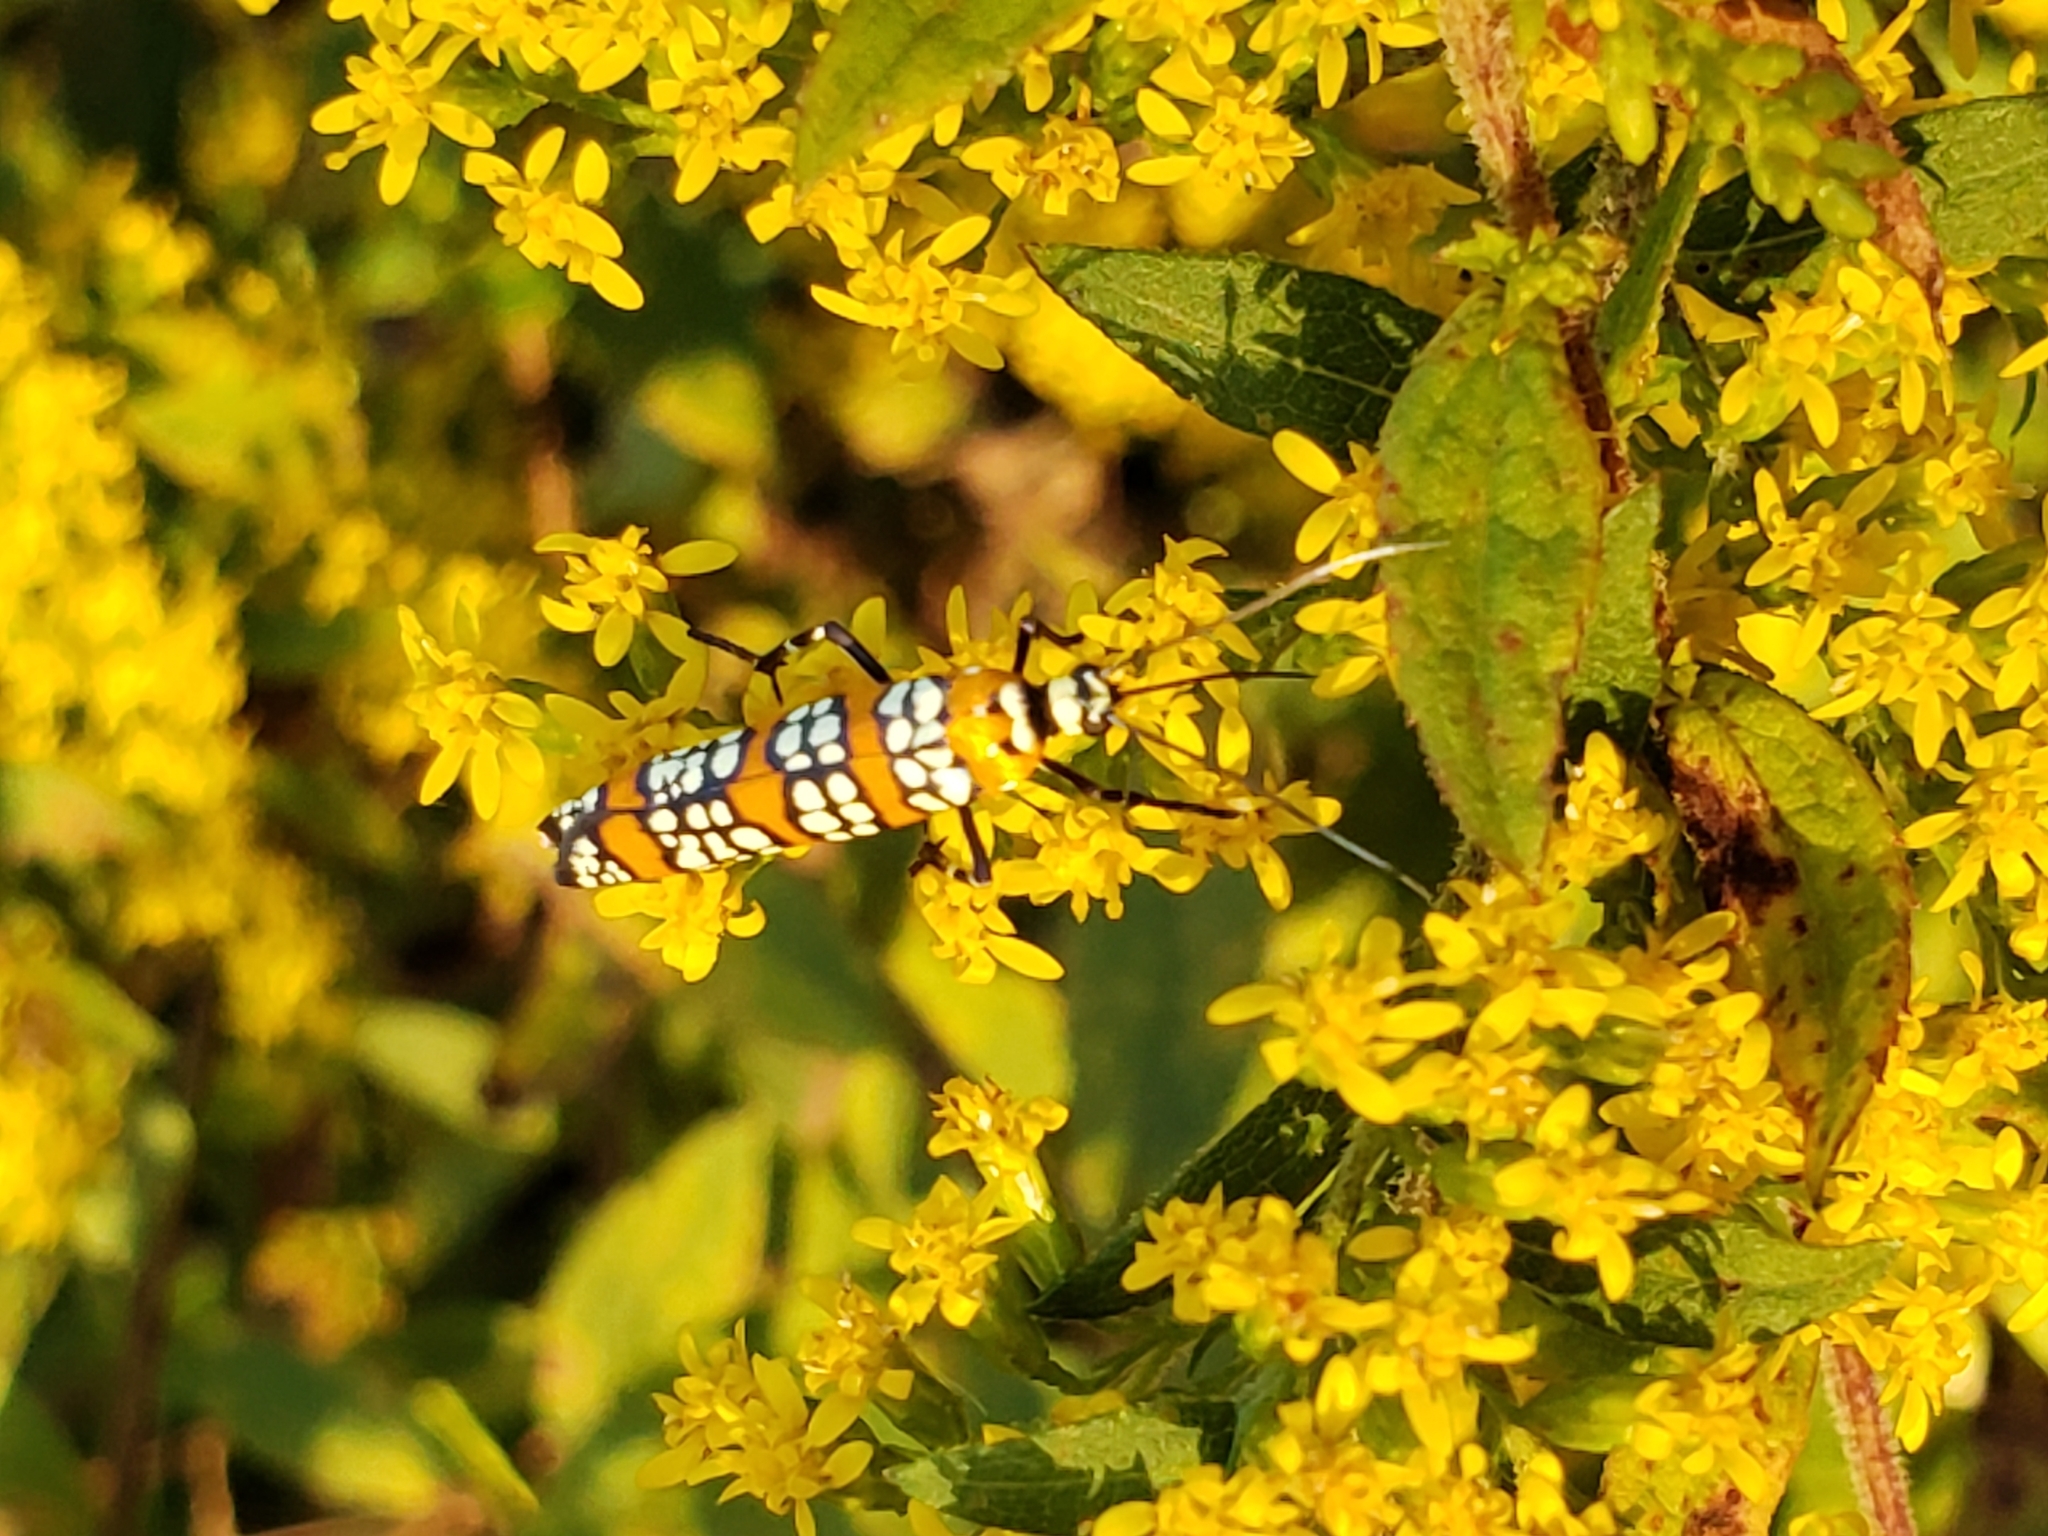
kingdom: Animalia
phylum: Arthropoda
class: Insecta
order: Lepidoptera
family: Attevidae
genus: Atteva
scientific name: Atteva punctella
